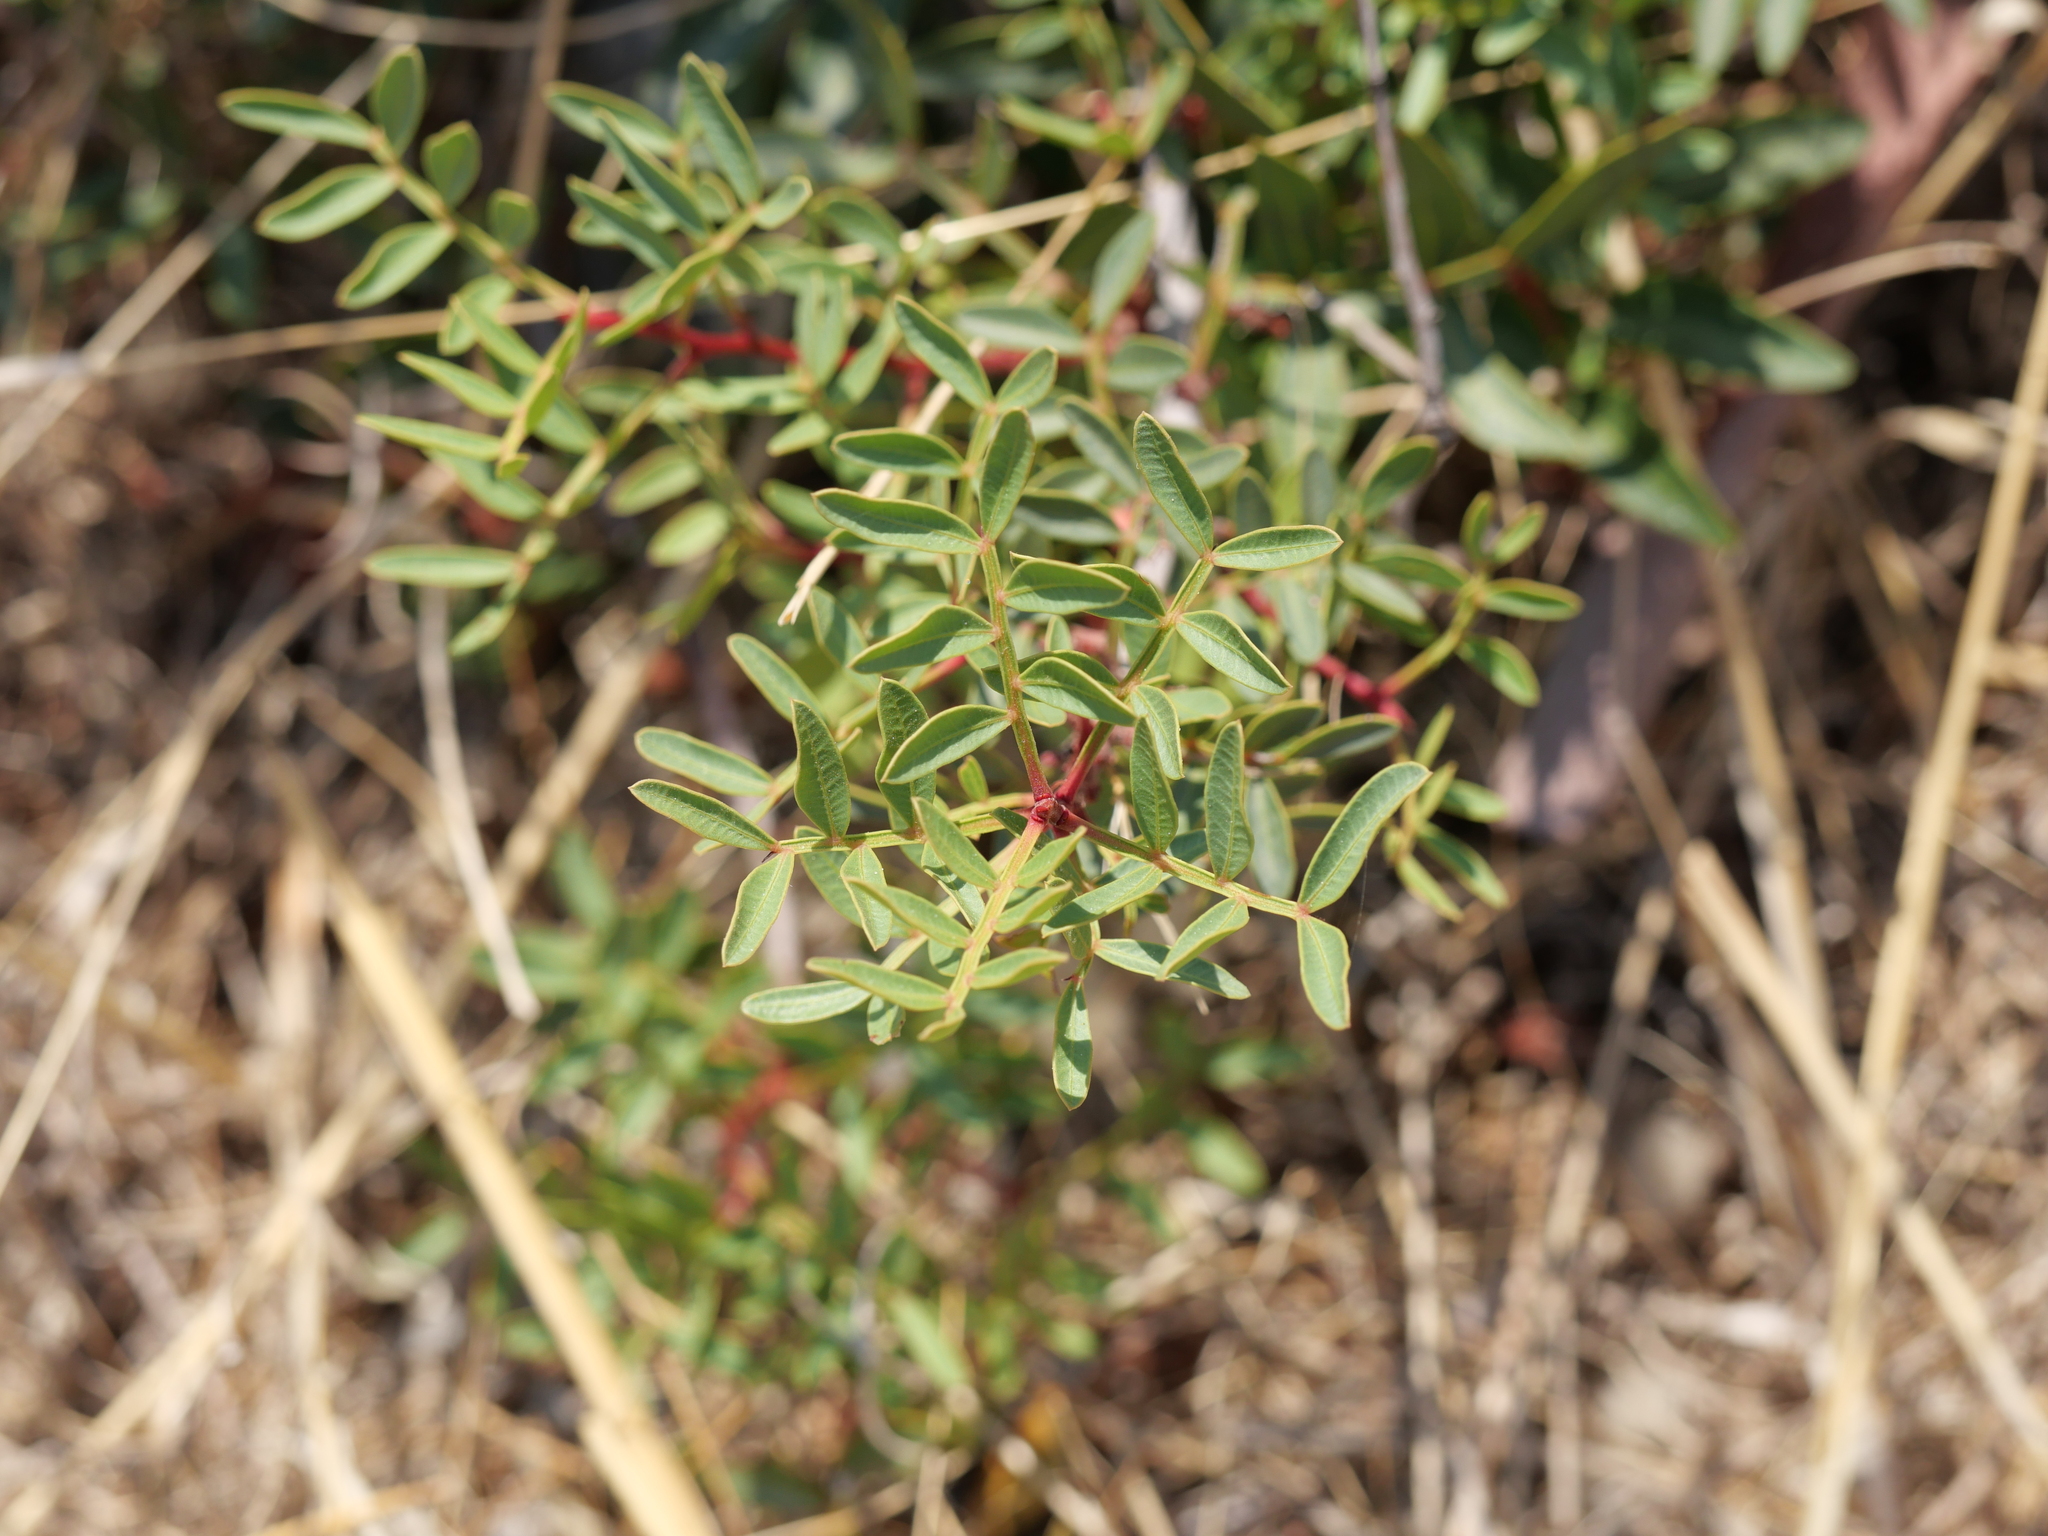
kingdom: Plantae
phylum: Tracheophyta
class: Magnoliopsida
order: Sapindales
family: Anacardiaceae
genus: Pistacia
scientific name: Pistacia lentiscus
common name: Lentisk
